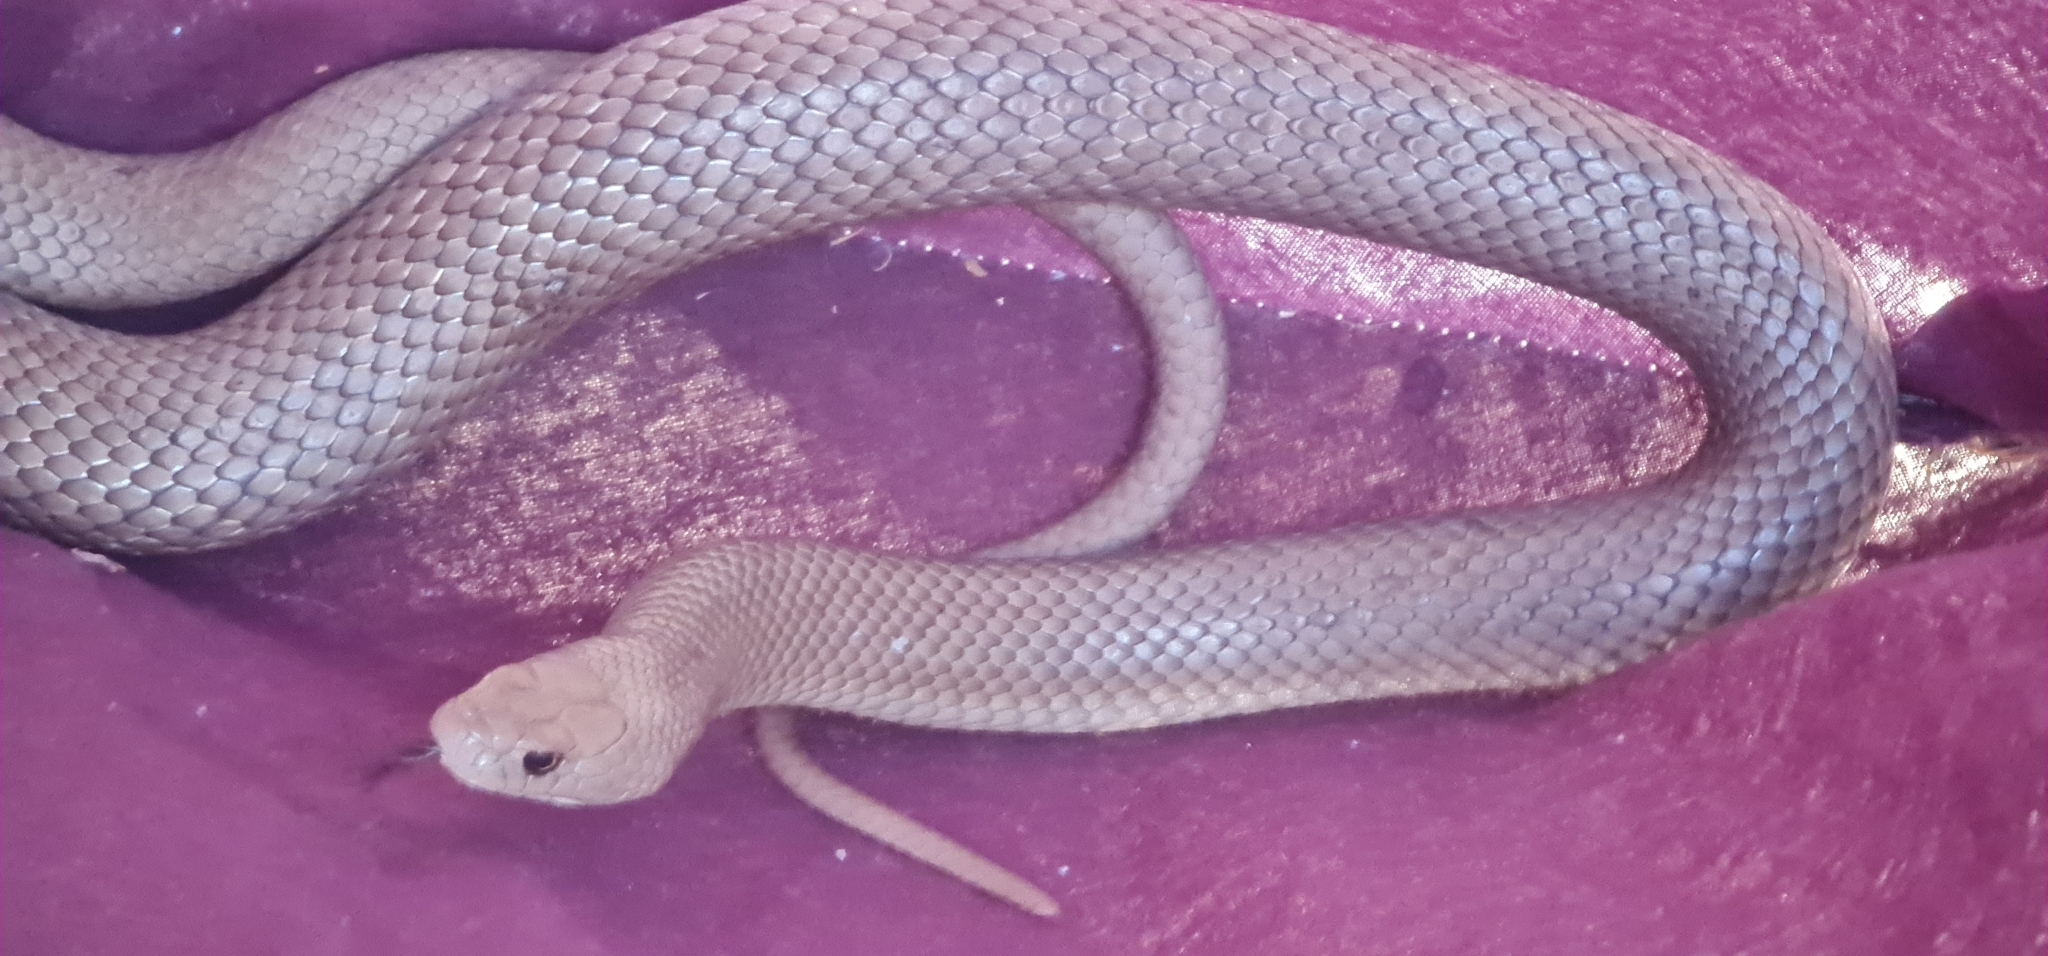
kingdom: Animalia
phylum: Chordata
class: Squamata
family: Elapidae
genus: Pseudonaja
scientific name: Pseudonaja textilis
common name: Eastern brown snake
